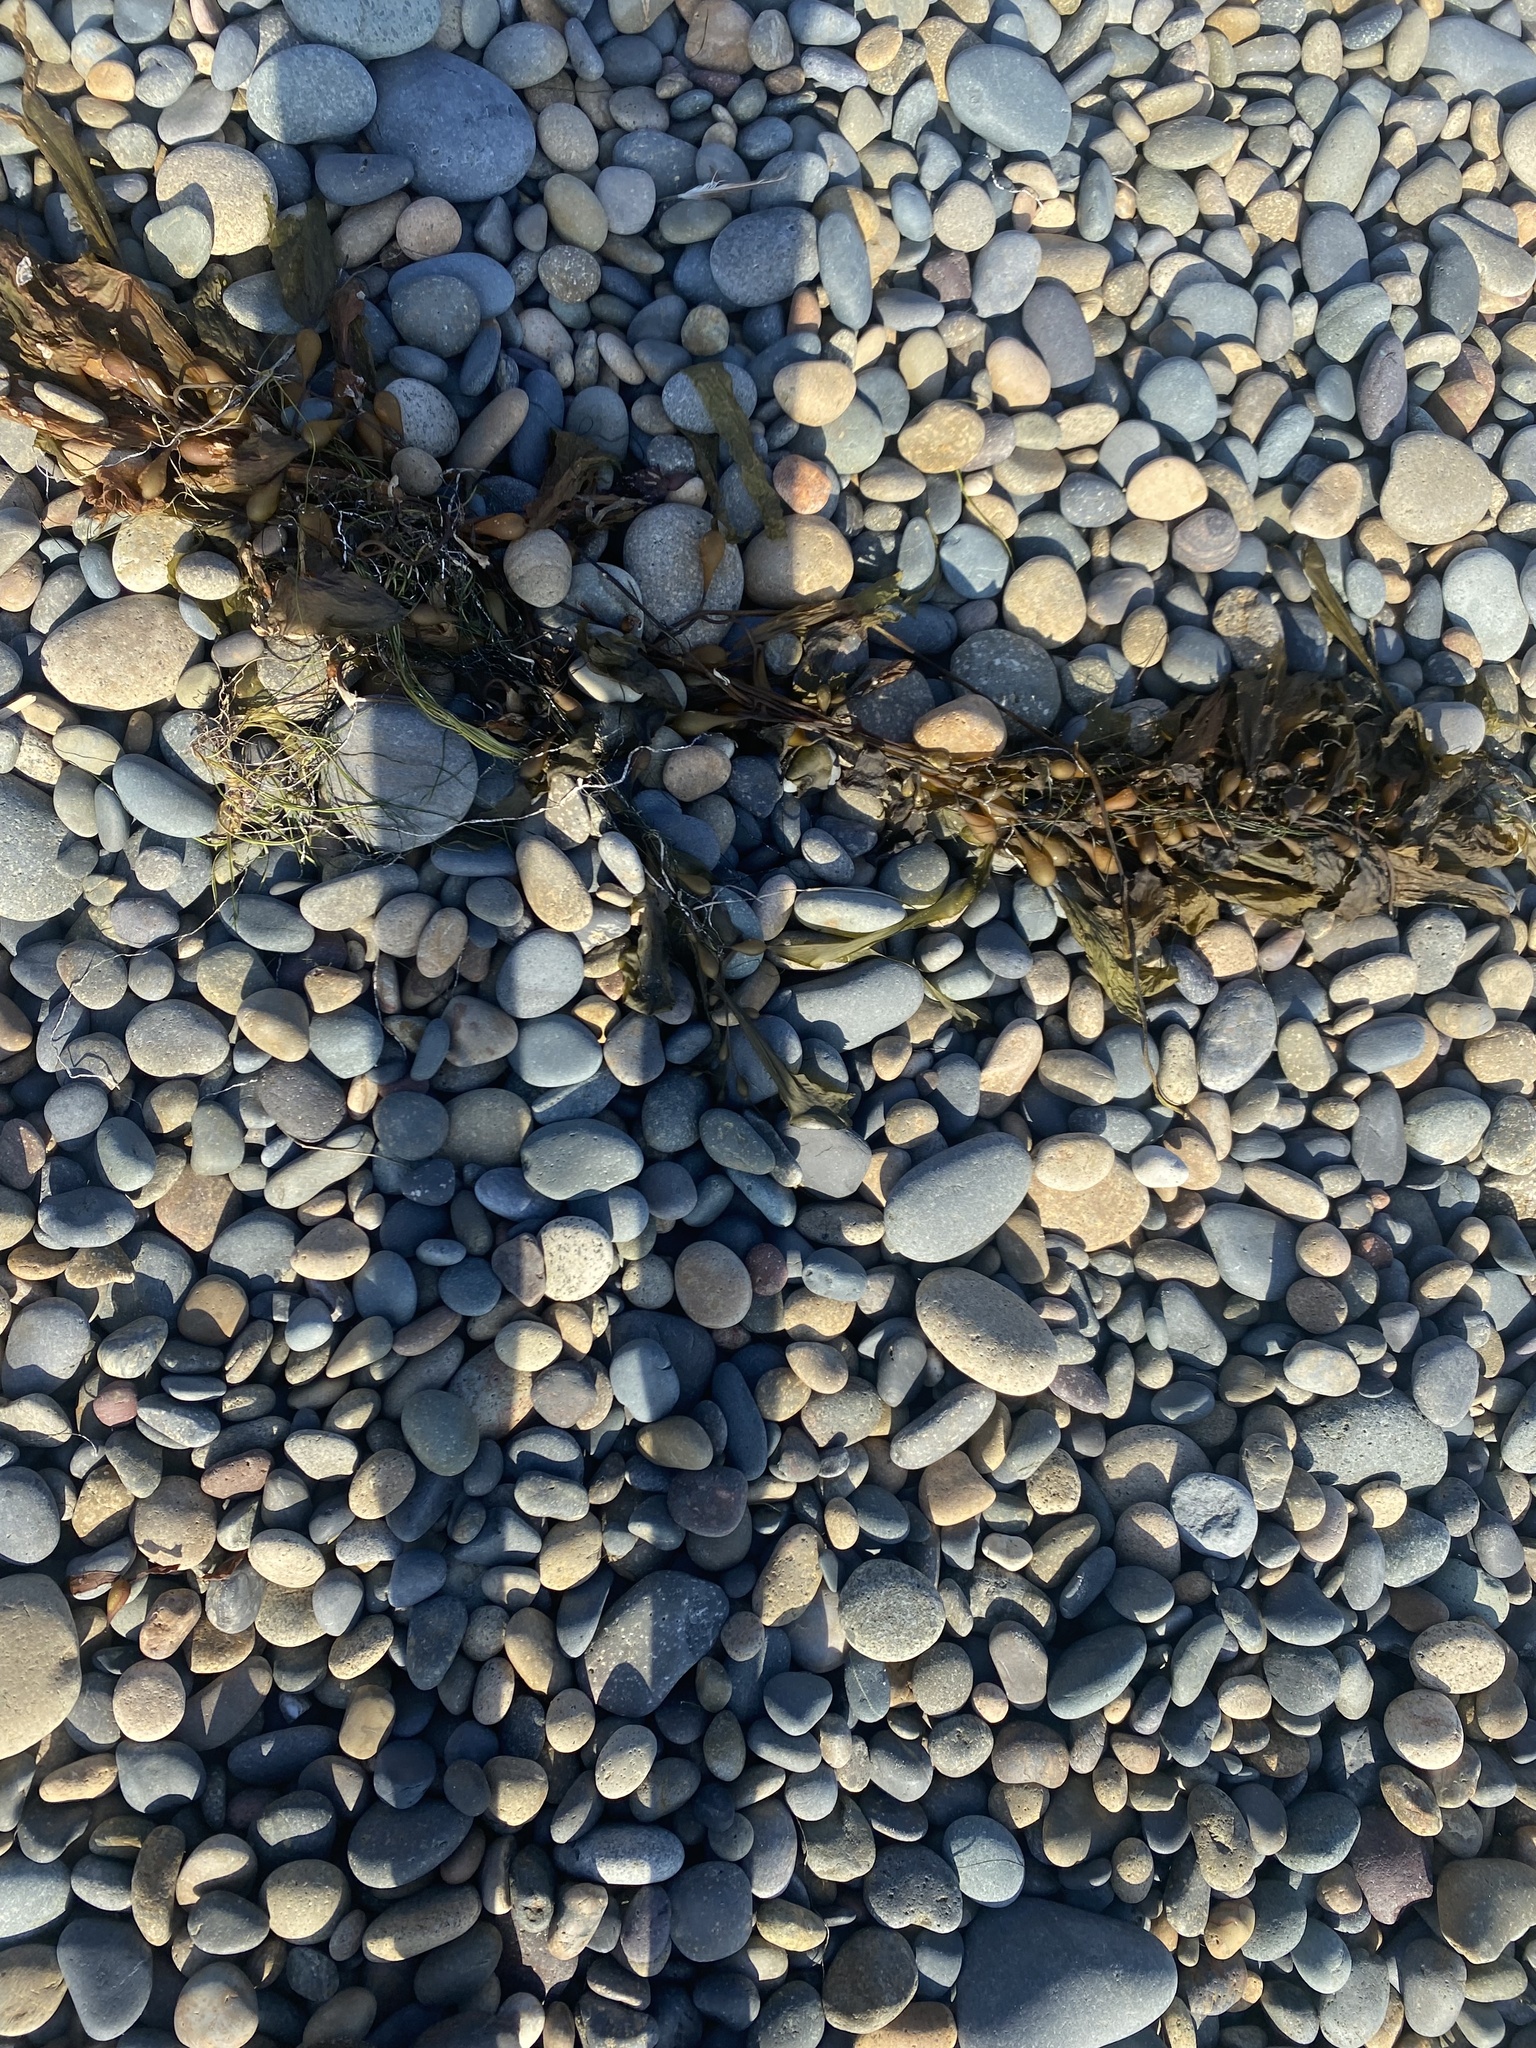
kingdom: Chromista
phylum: Ochrophyta
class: Phaeophyceae
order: Laminariales
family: Laminariaceae
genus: Macrocystis
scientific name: Macrocystis pyrifera
